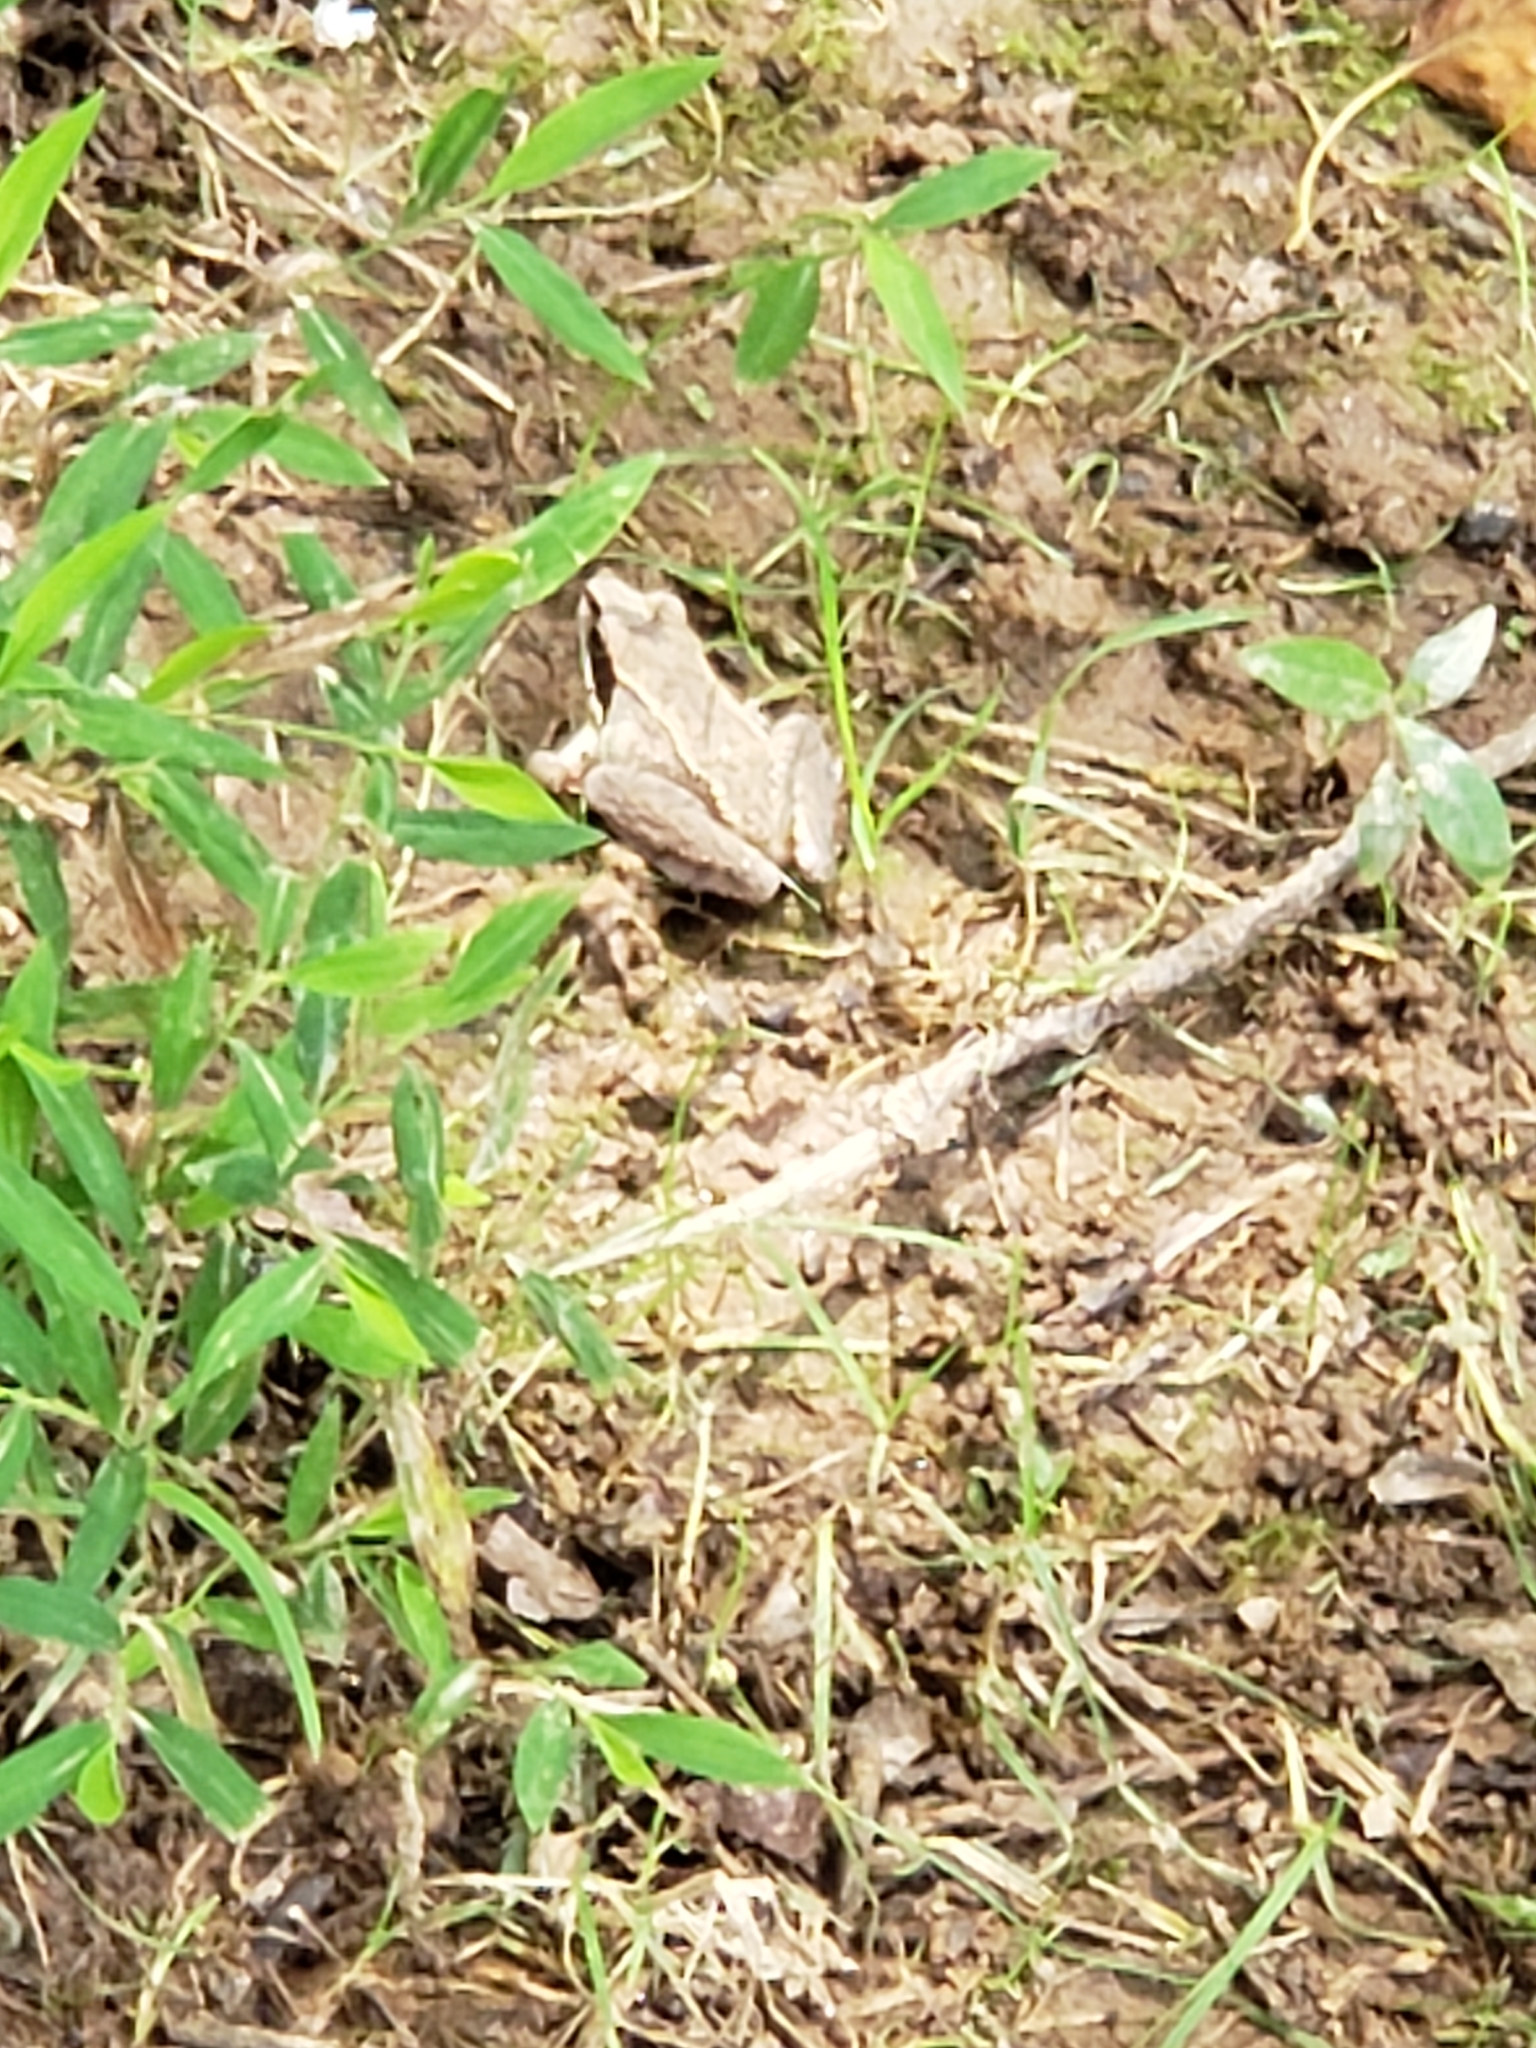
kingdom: Animalia
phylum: Chordata
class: Amphibia
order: Anura
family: Ranidae
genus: Lithobates
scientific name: Lithobates sylvaticus
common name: Wood frog
